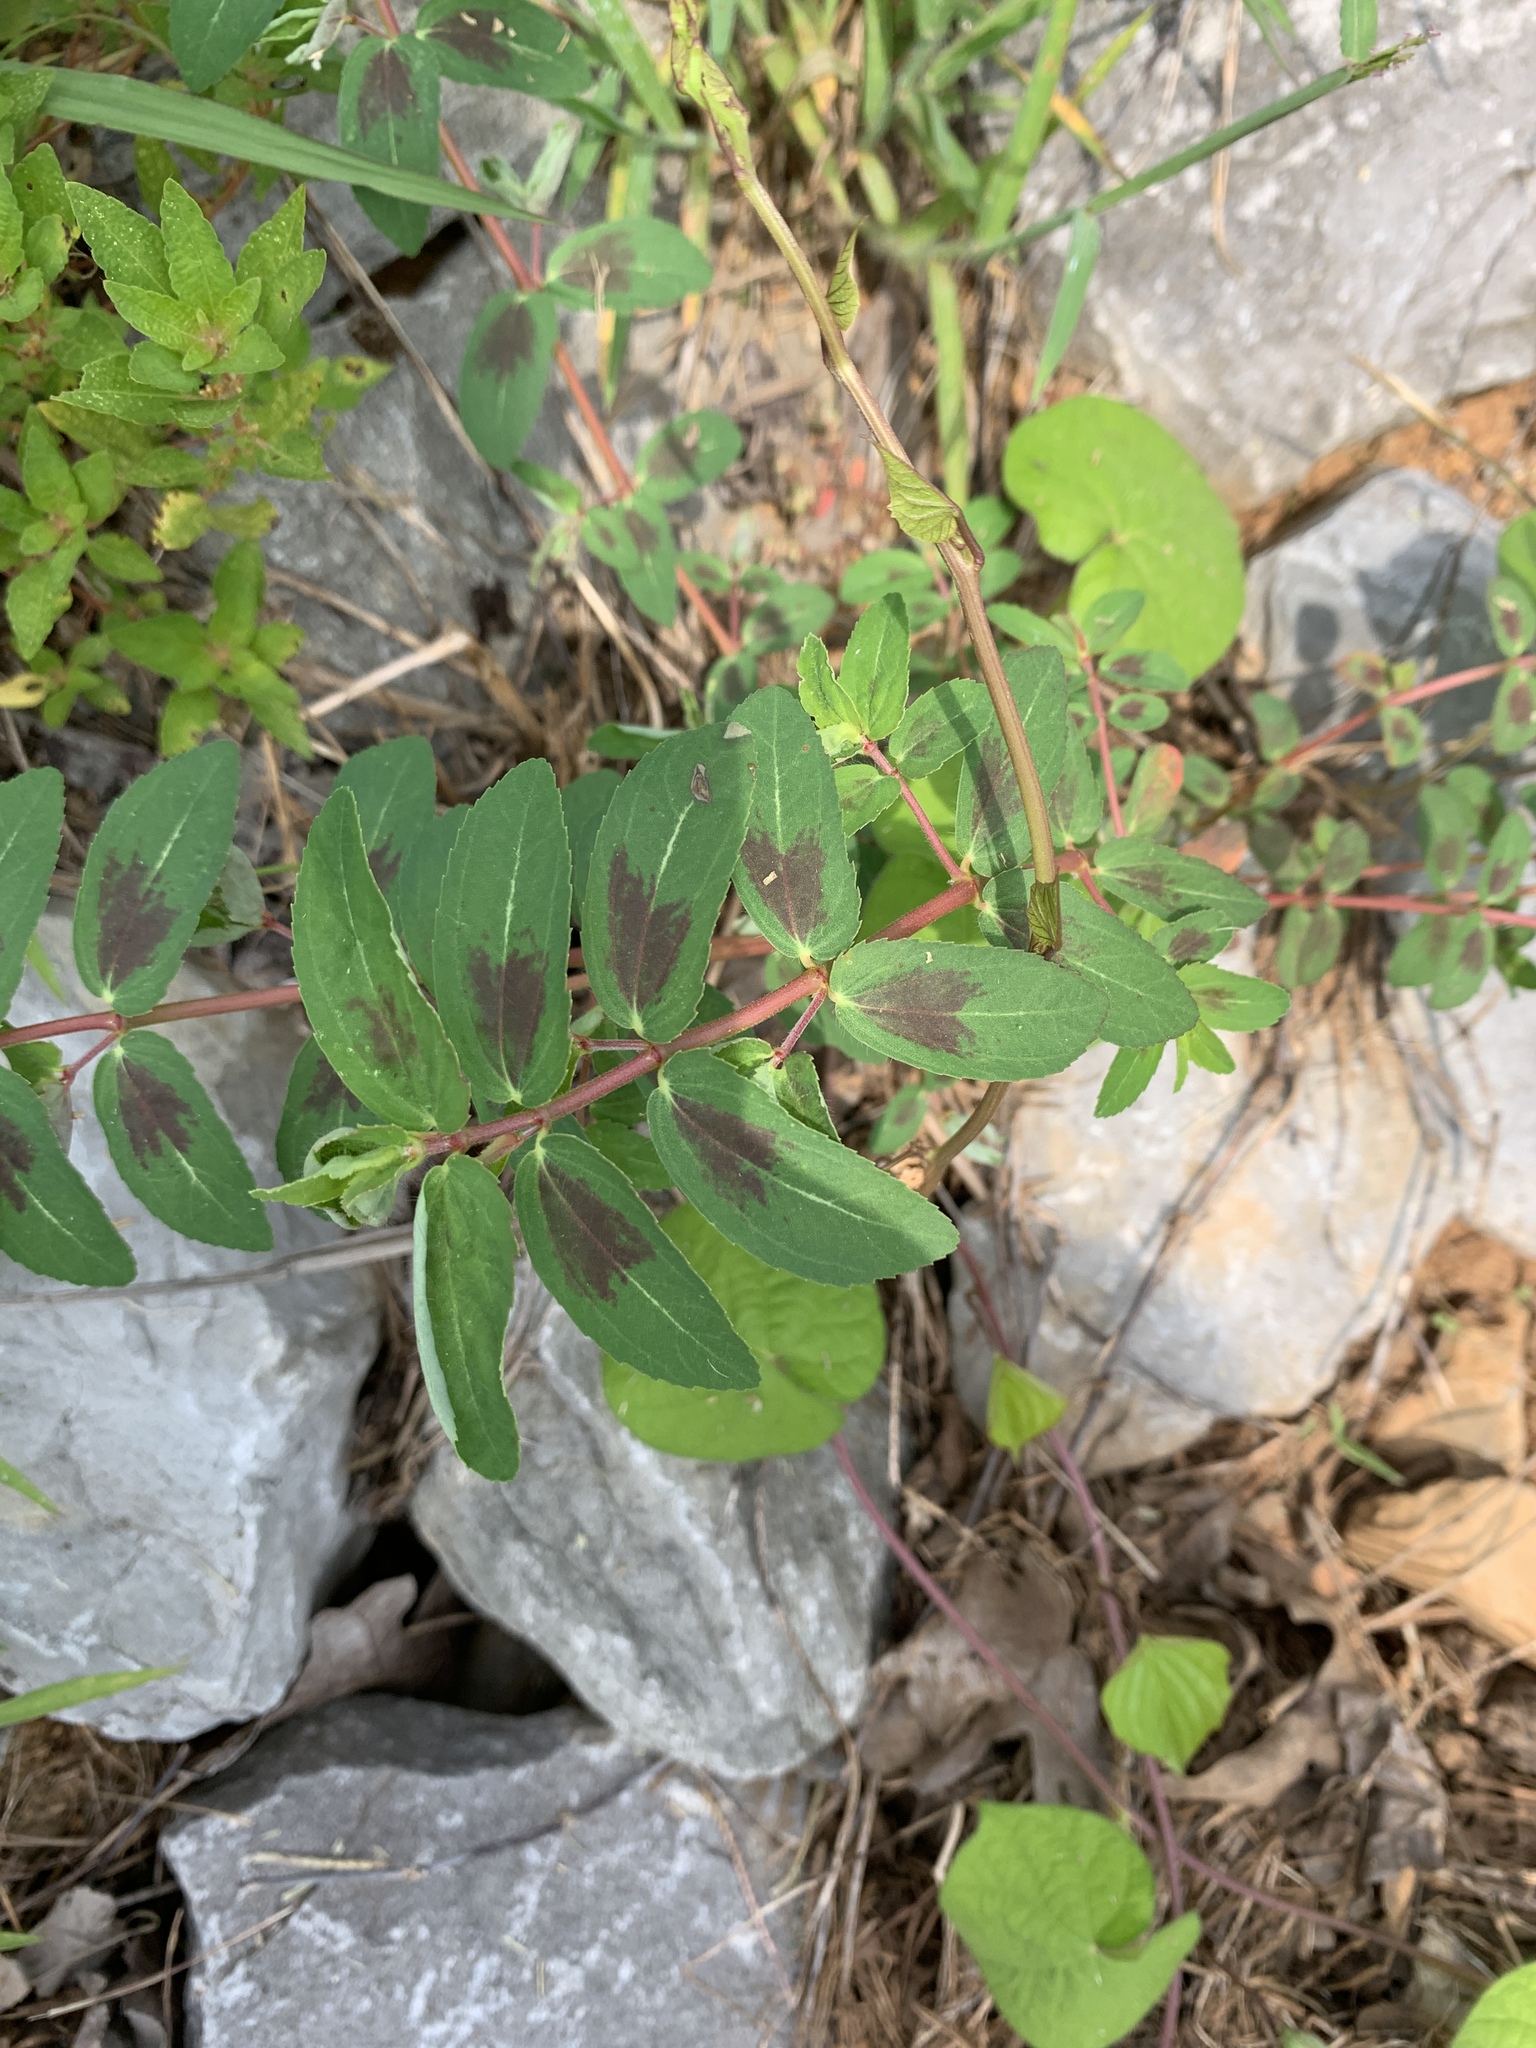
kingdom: Plantae
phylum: Tracheophyta
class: Magnoliopsida
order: Malpighiales
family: Euphorbiaceae
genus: Euphorbia
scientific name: Euphorbia nutans
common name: Eyebane
